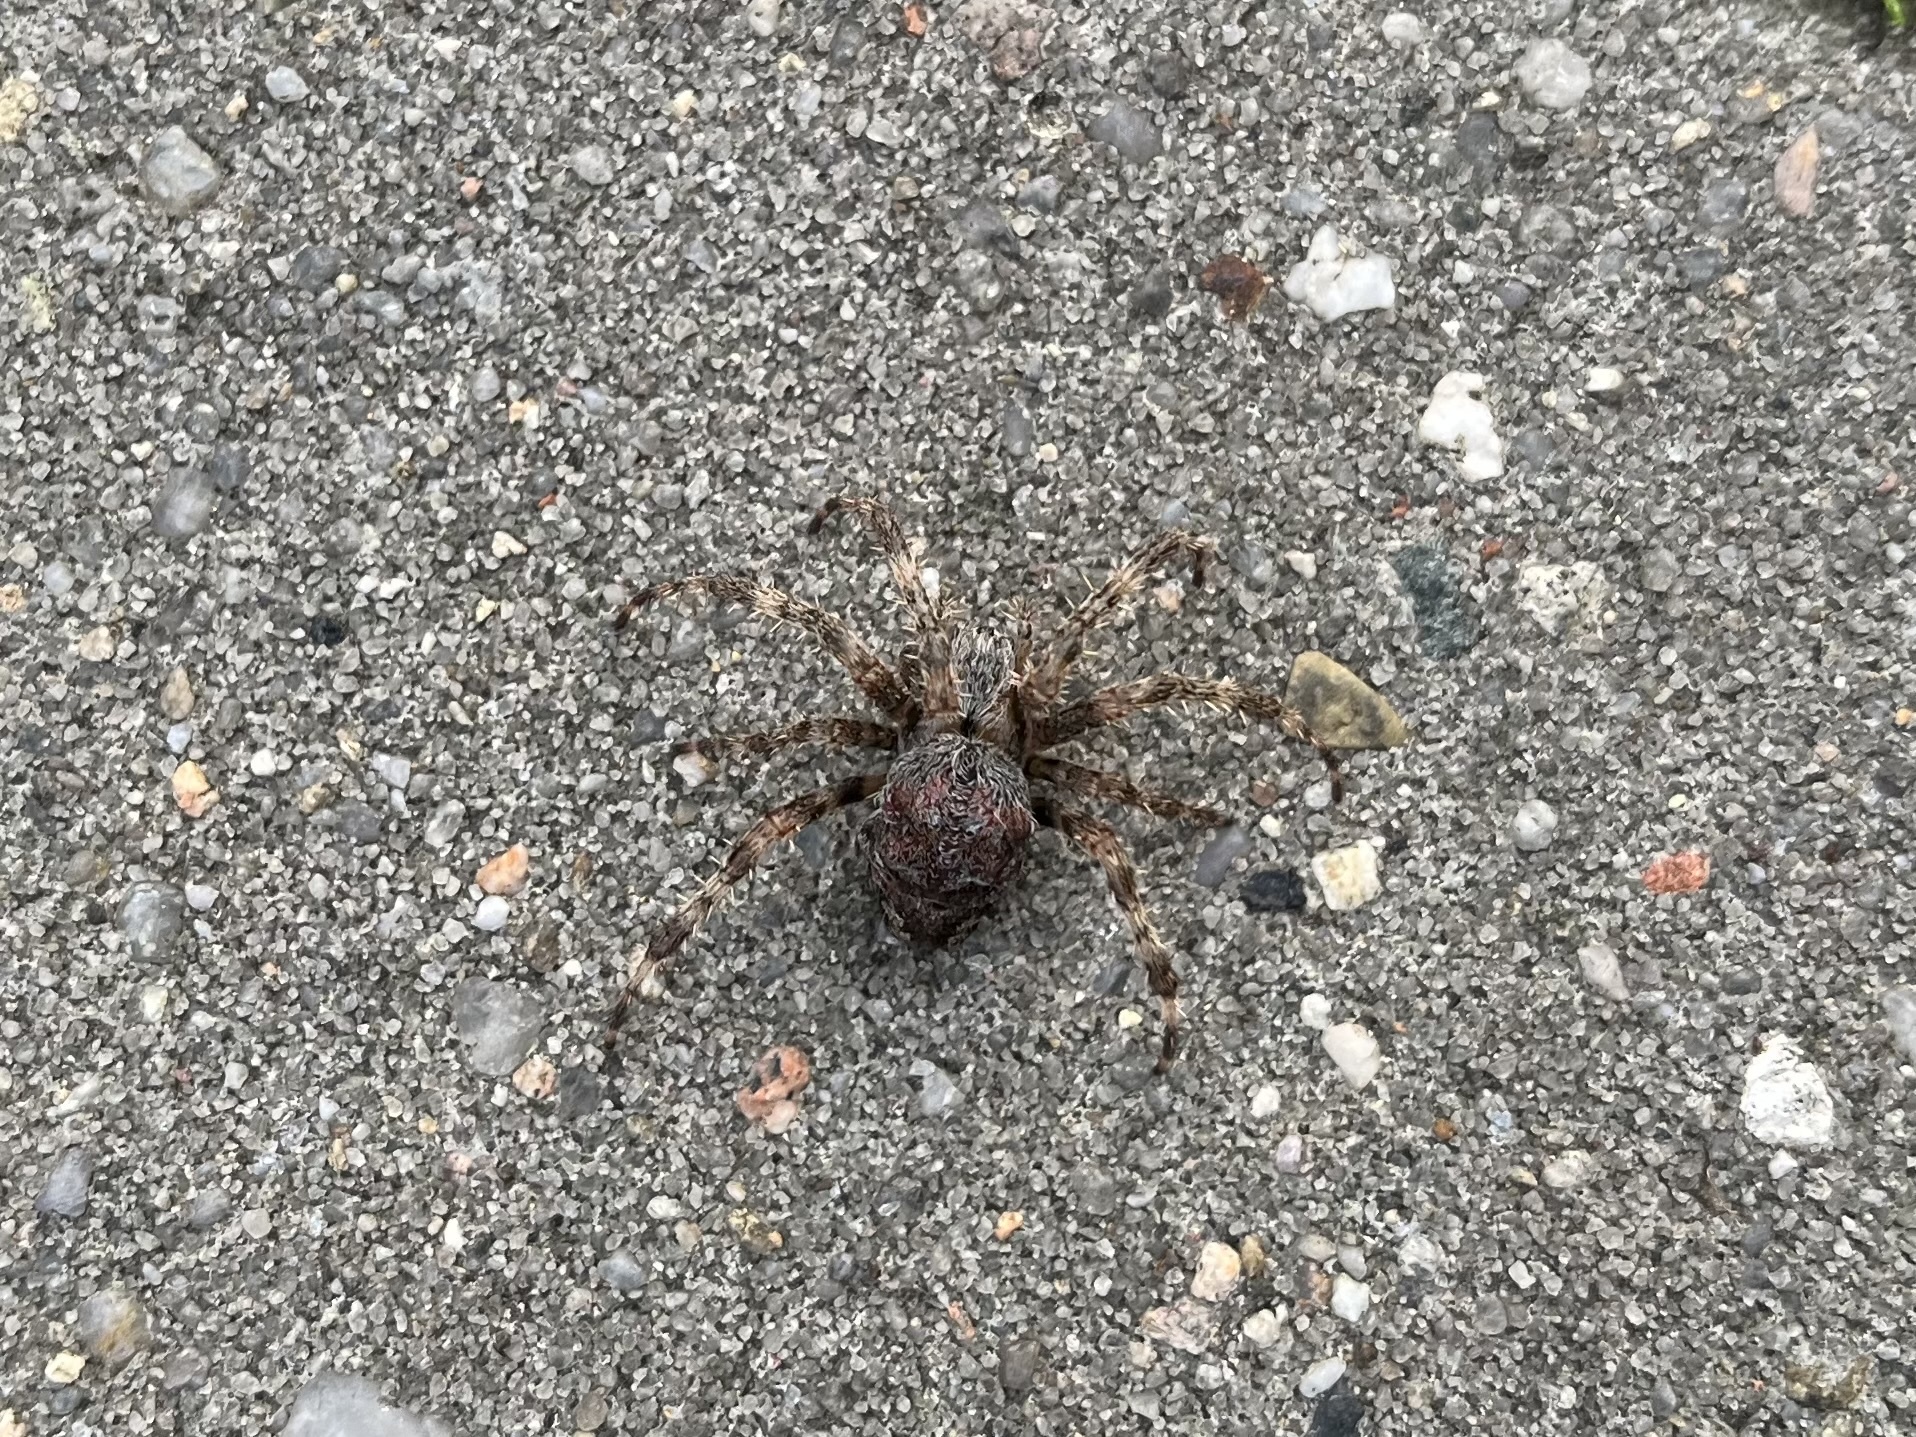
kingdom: Animalia
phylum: Arthropoda
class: Arachnida
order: Araneae
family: Araneidae
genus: Araneus
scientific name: Araneus diadematus
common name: Cross orbweaver
